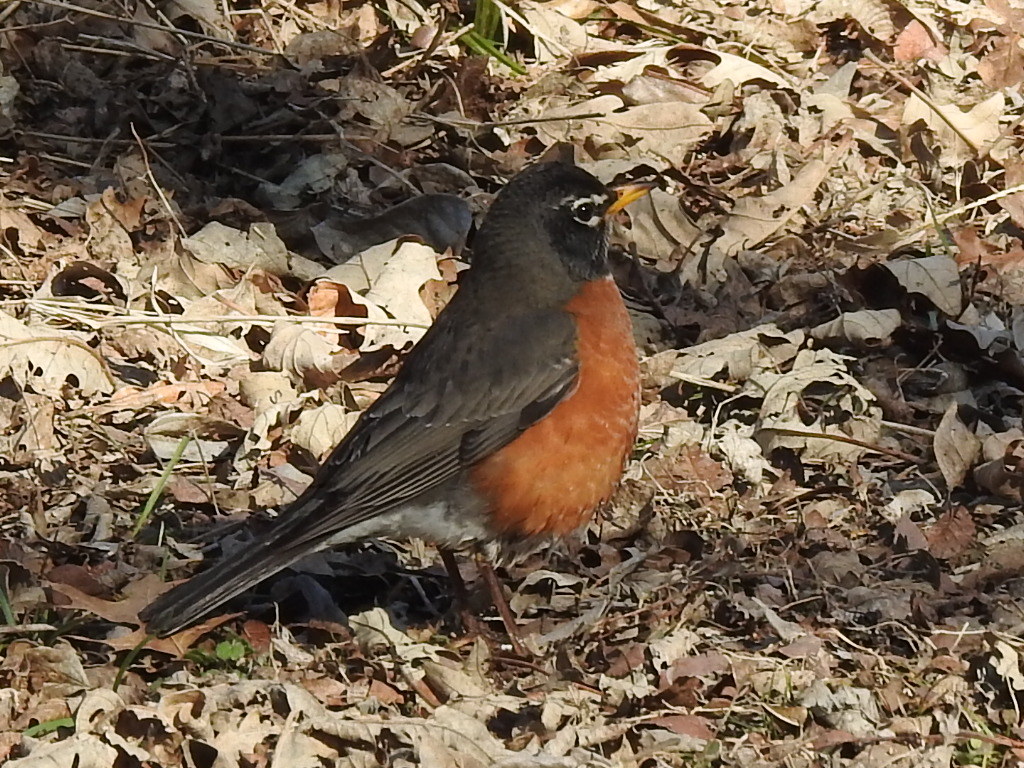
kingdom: Animalia
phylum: Chordata
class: Aves
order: Passeriformes
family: Turdidae
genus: Turdus
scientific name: Turdus migratorius
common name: American robin
